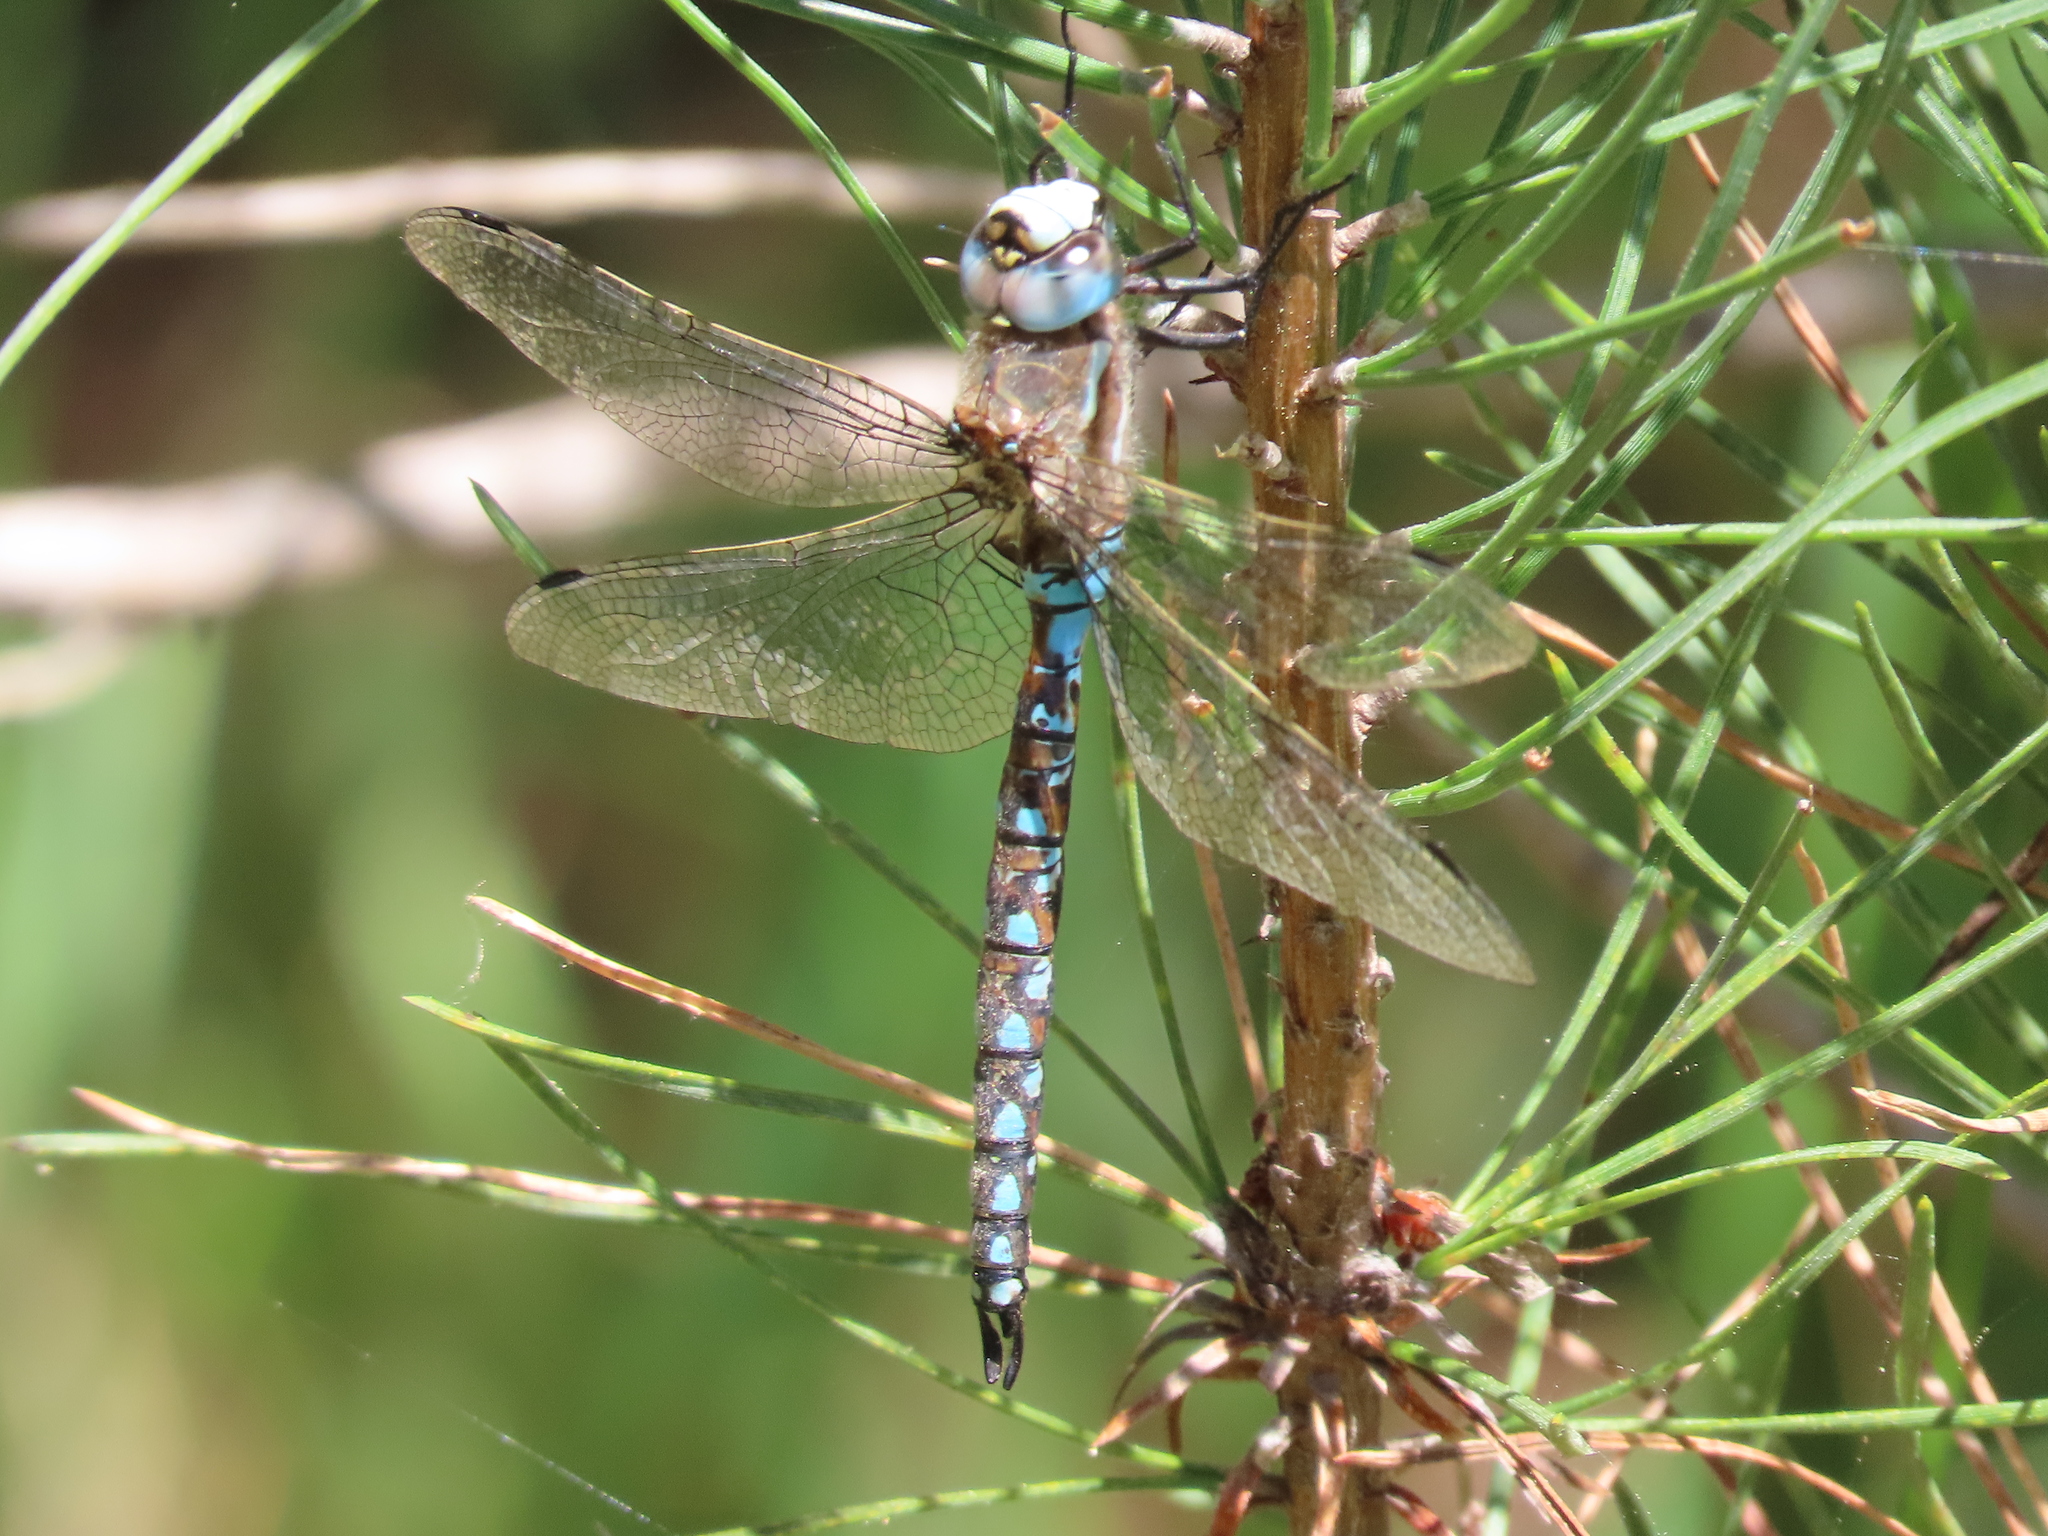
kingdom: Animalia
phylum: Arthropoda
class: Insecta
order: Odonata
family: Aeshnidae
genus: Rhionaeschna
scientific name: Rhionaeschna californica
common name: California darner
